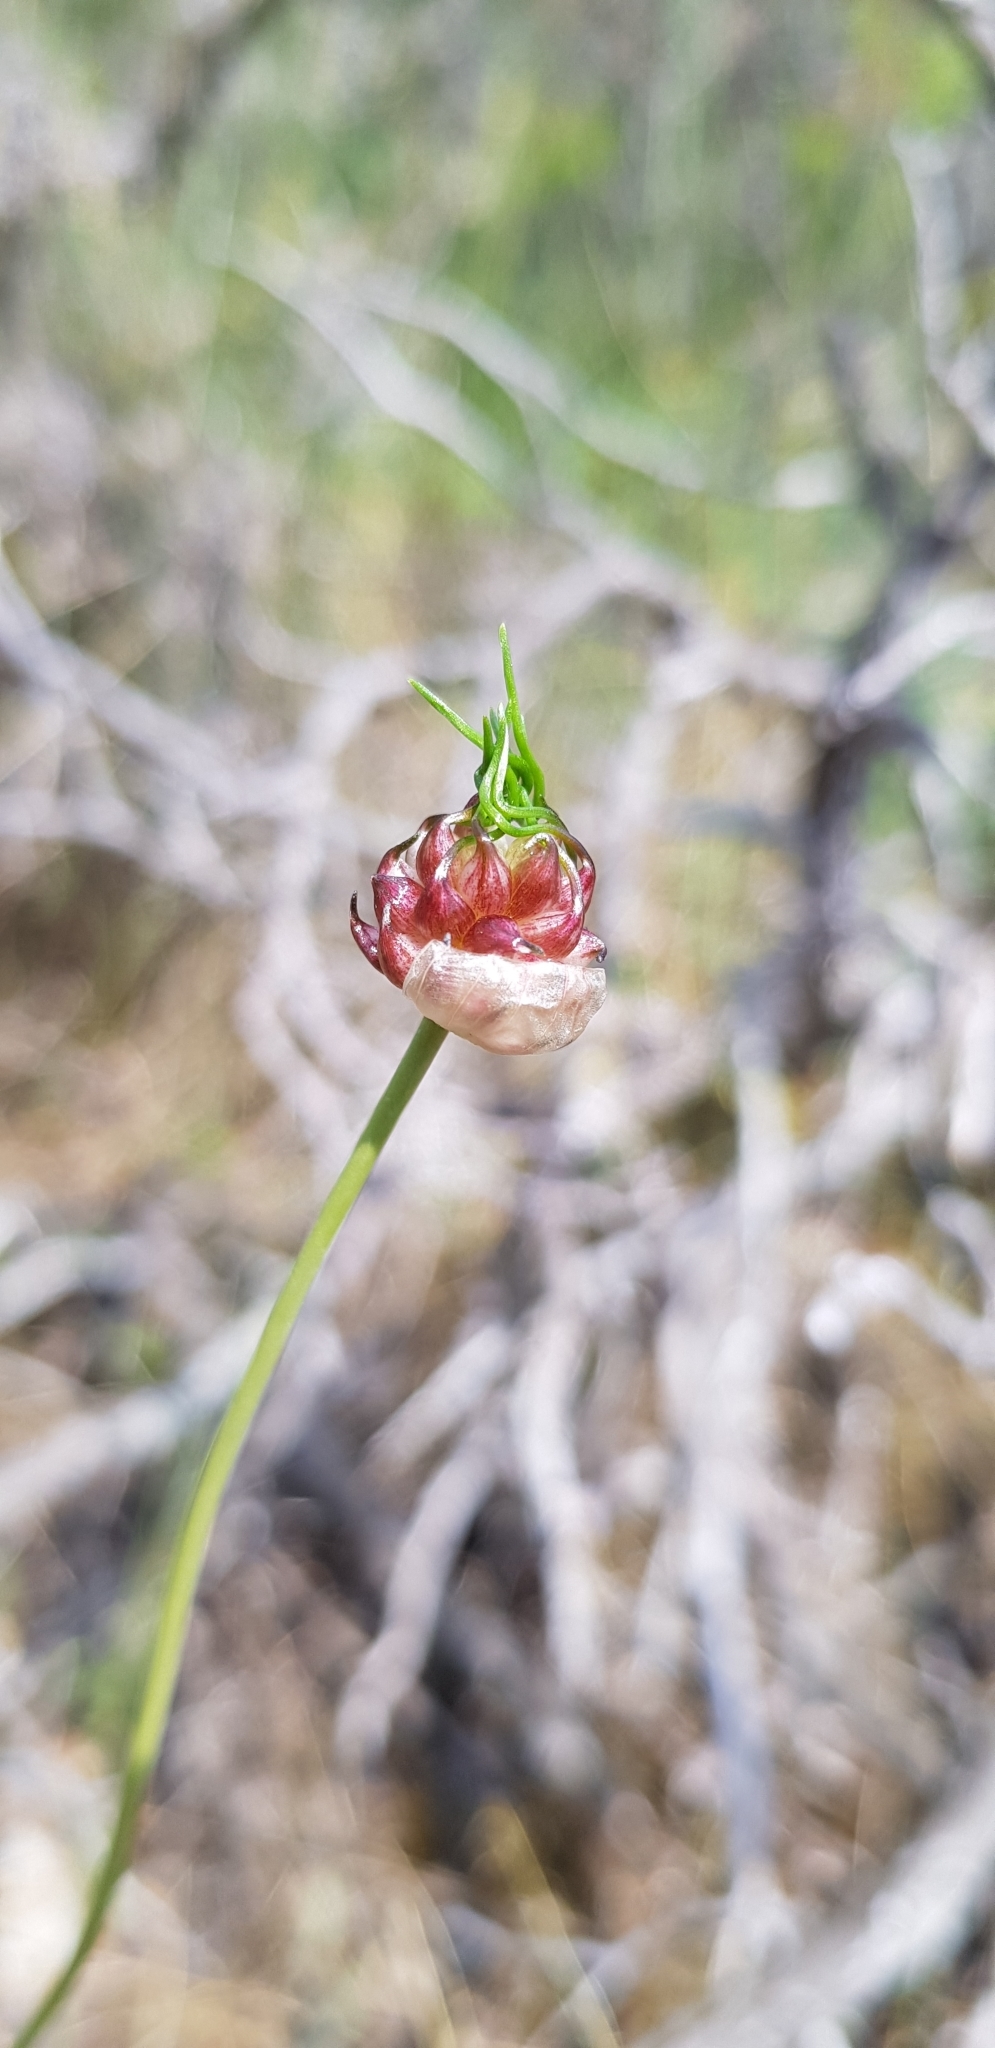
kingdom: Plantae
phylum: Tracheophyta
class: Liliopsida
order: Asparagales
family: Amaryllidaceae
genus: Allium
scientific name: Allium vineale
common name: Crow garlic
